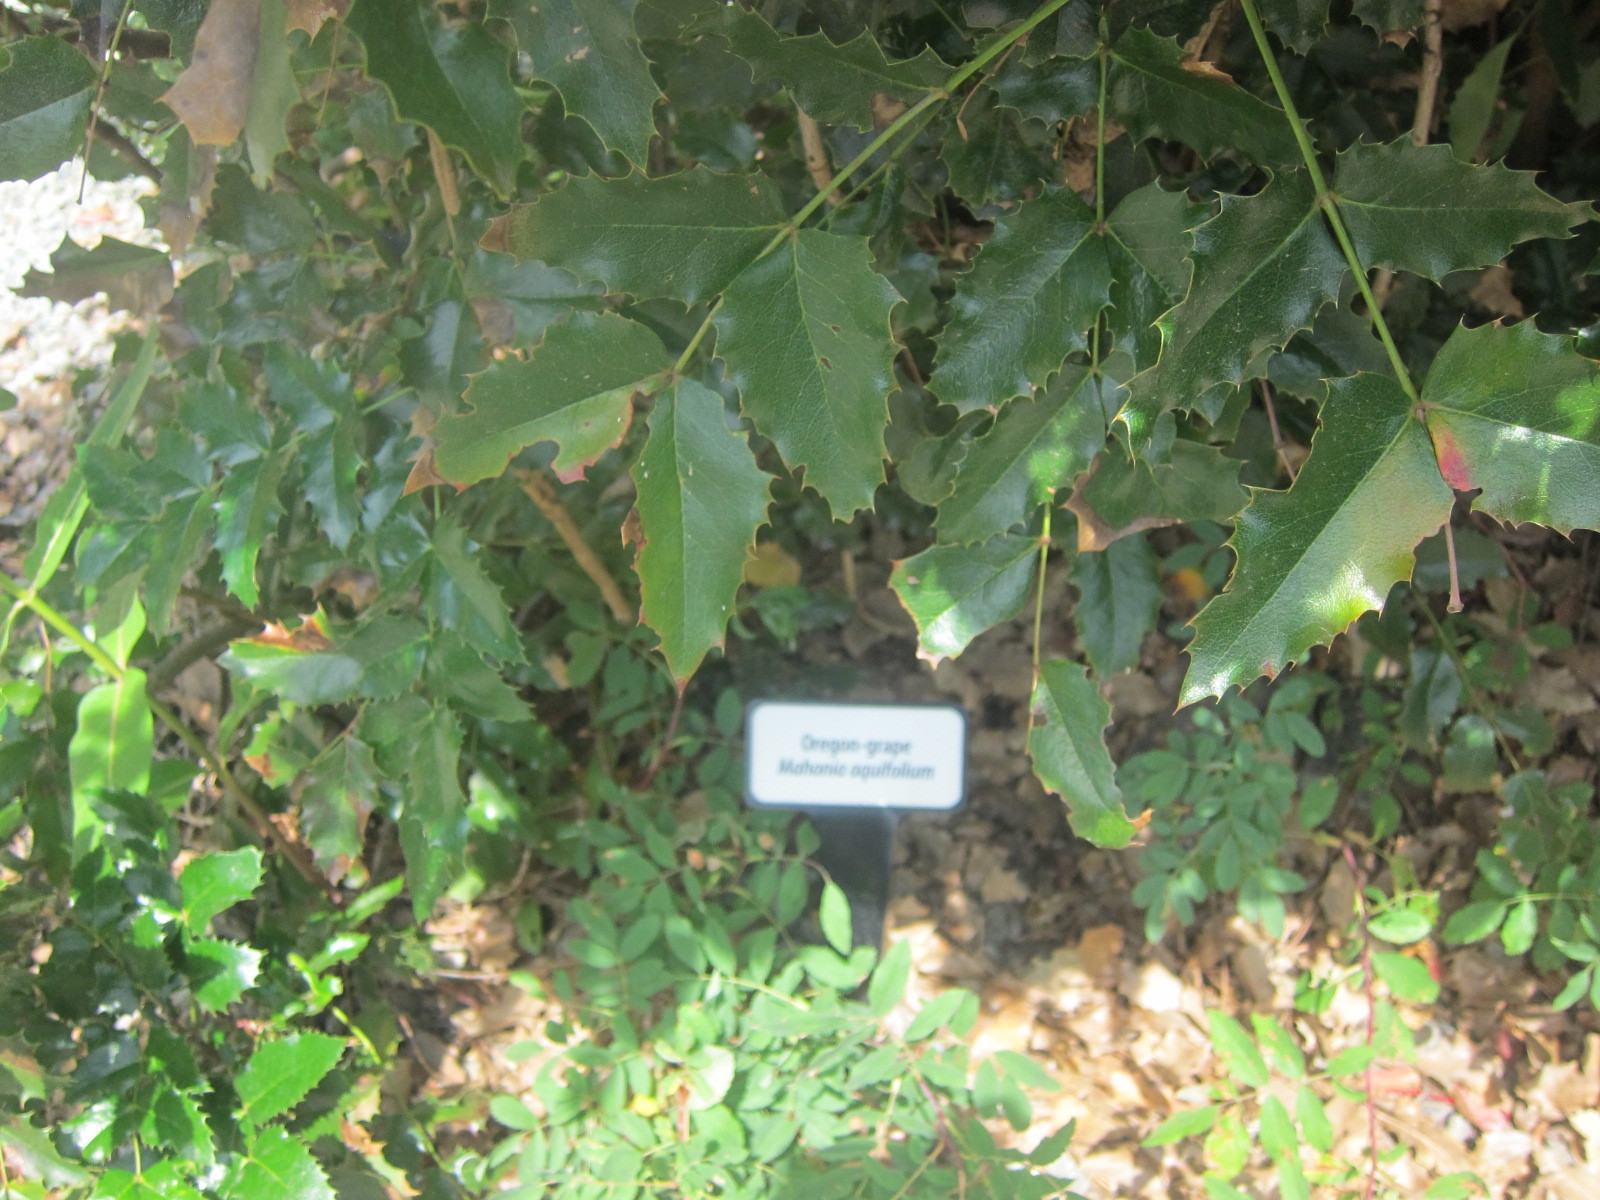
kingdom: Plantae
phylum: Tracheophyta
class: Magnoliopsida
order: Ranunculales
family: Berberidaceae
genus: Mahonia
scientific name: Mahonia aquifolium
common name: Oregon-grape
